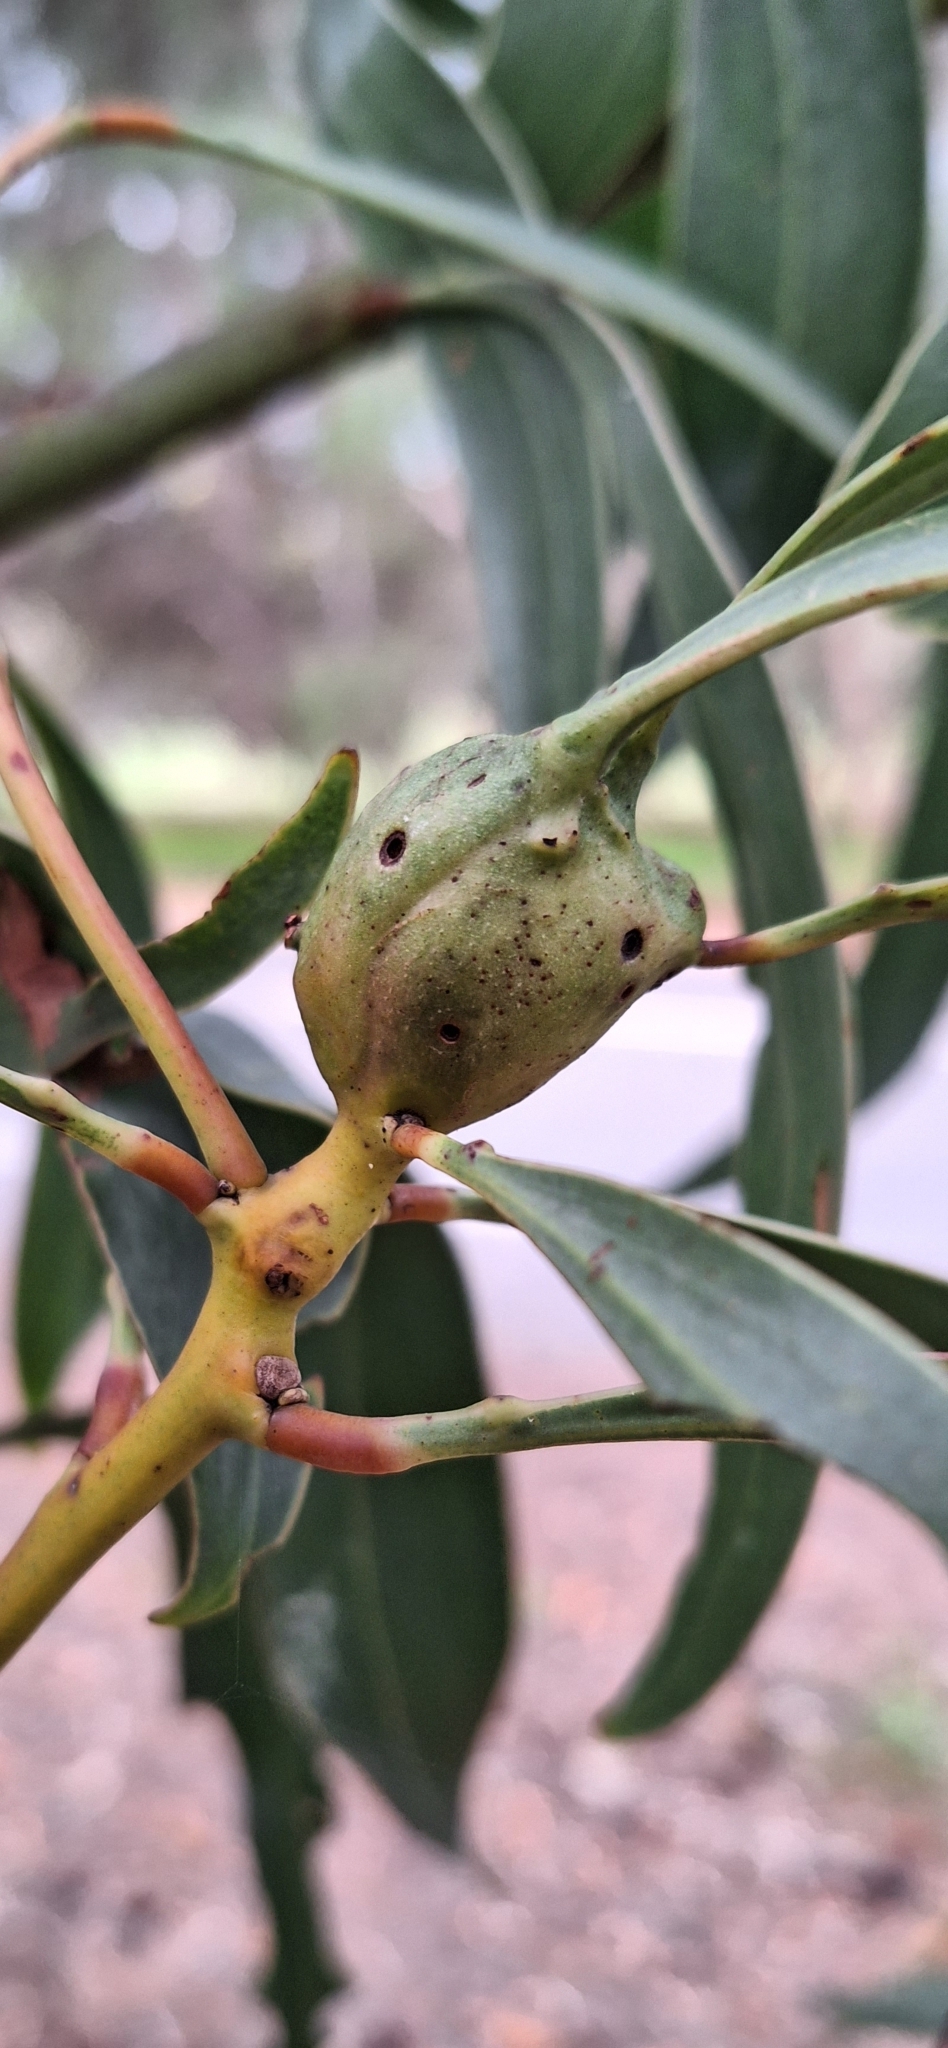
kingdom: Animalia
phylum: Arthropoda
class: Insecta
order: Hymenoptera
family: Pteromalidae
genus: Trichilogaster
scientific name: Trichilogaster signiventris
